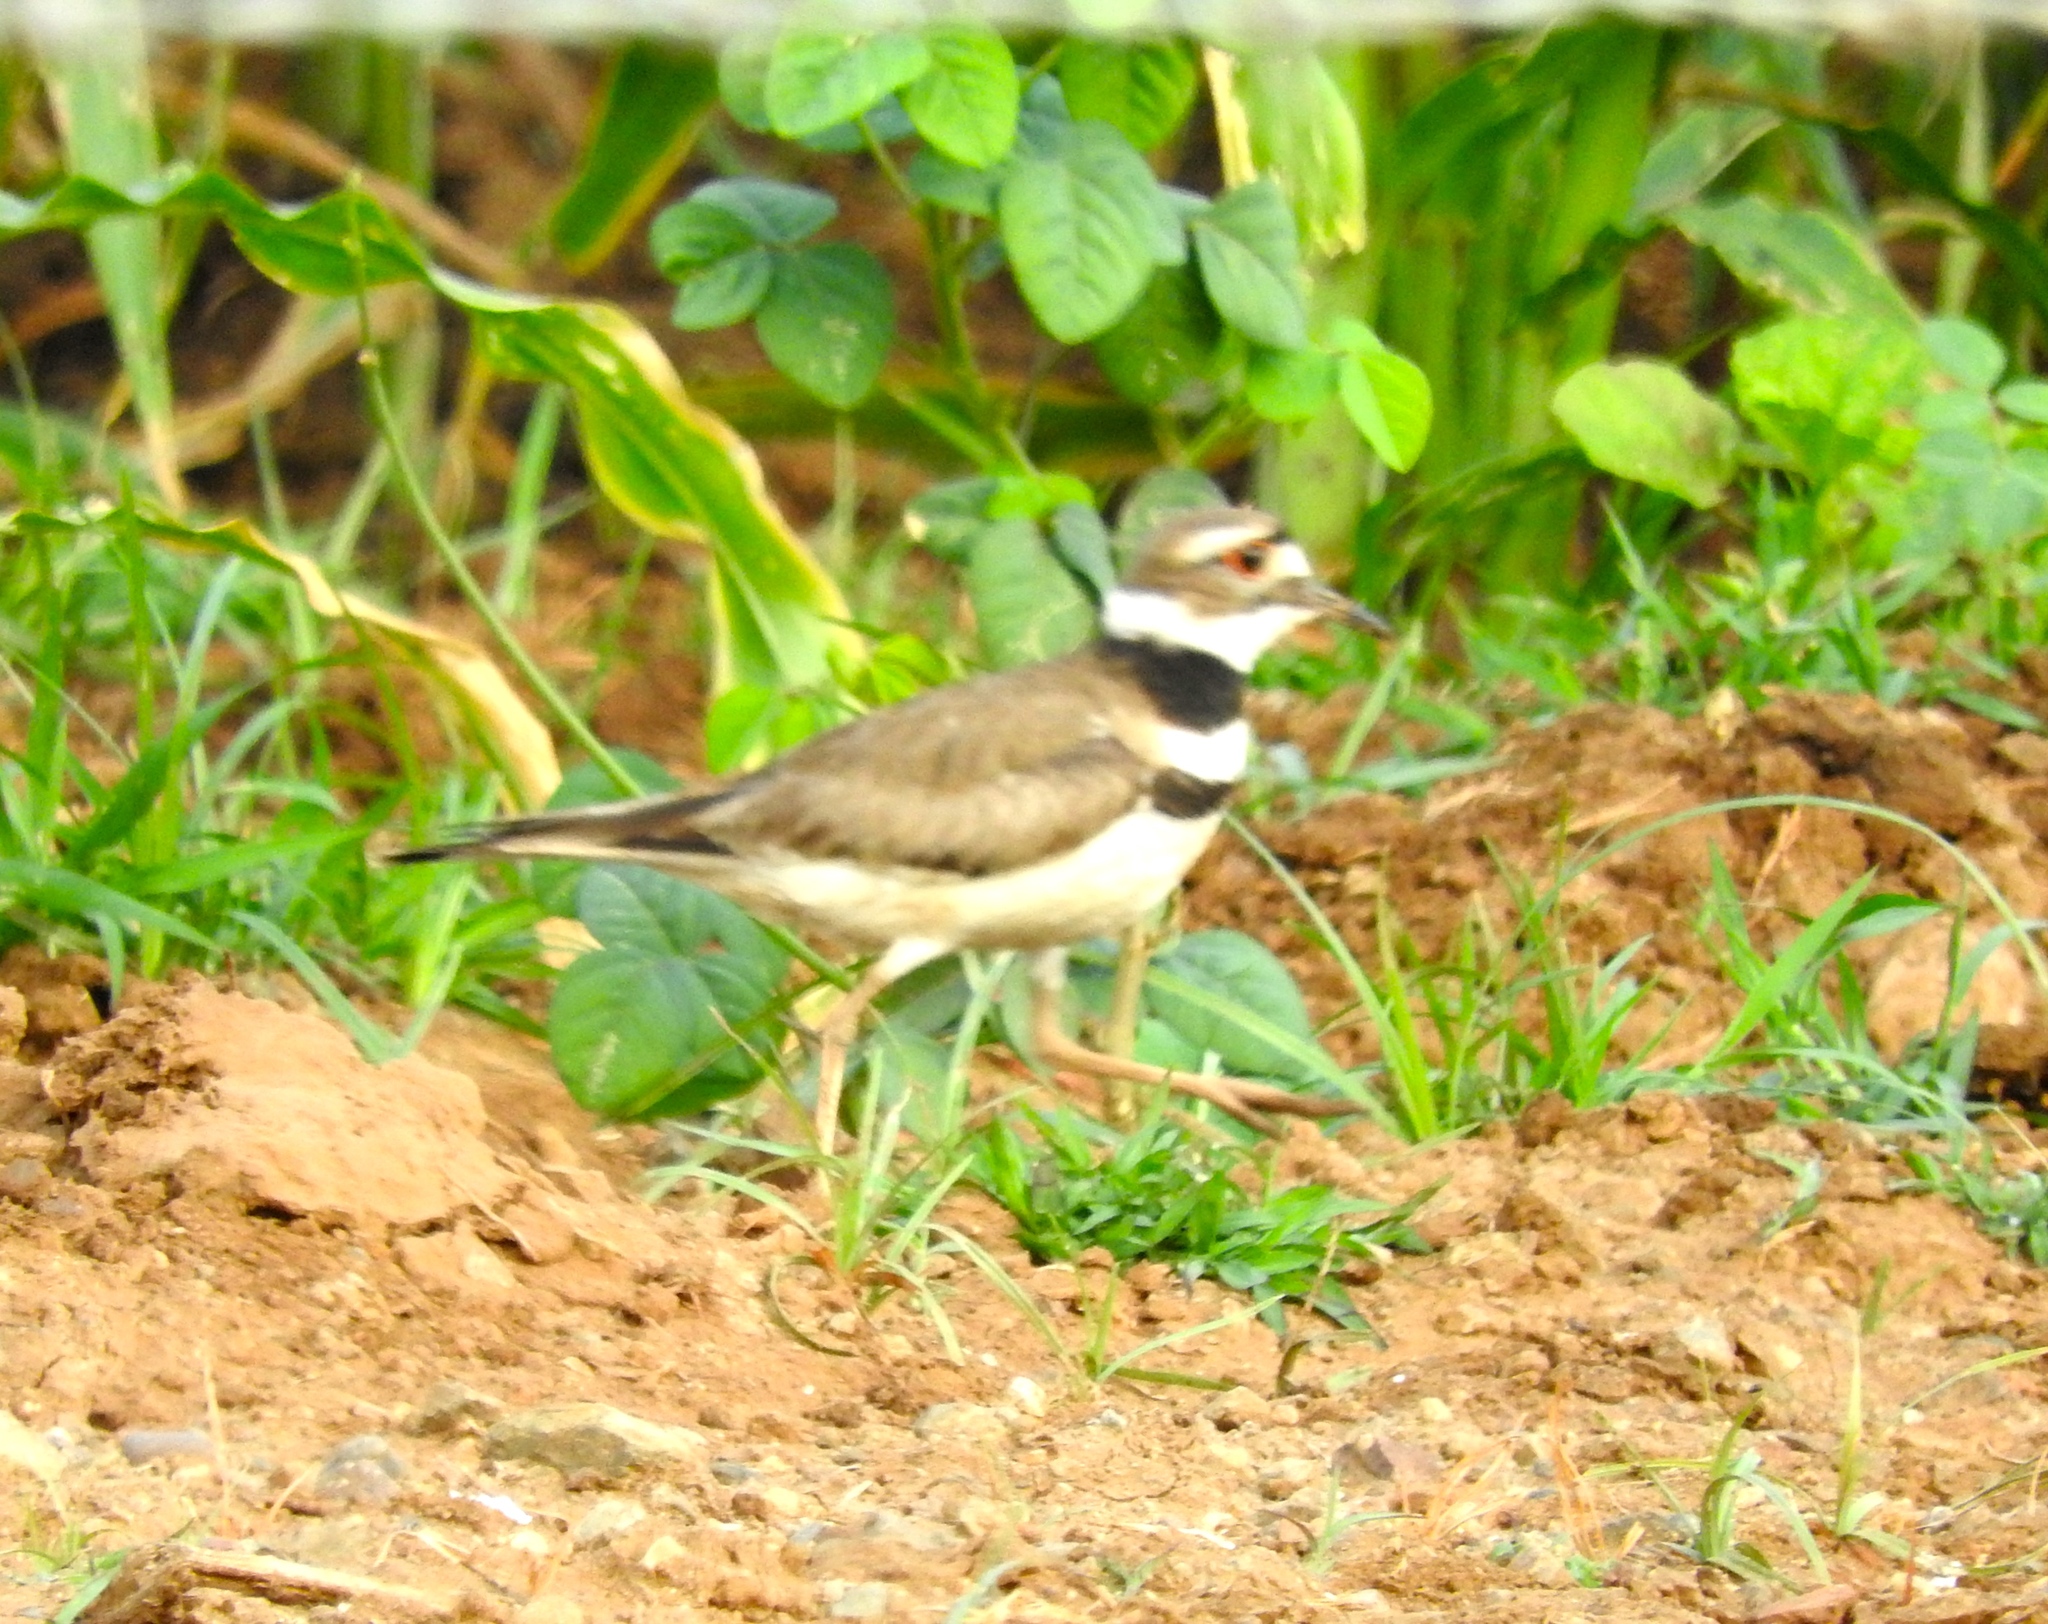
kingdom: Animalia
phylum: Chordata
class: Aves
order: Charadriiformes
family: Charadriidae
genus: Charadrius
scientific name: Charadrius vociferus
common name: Killdeer
